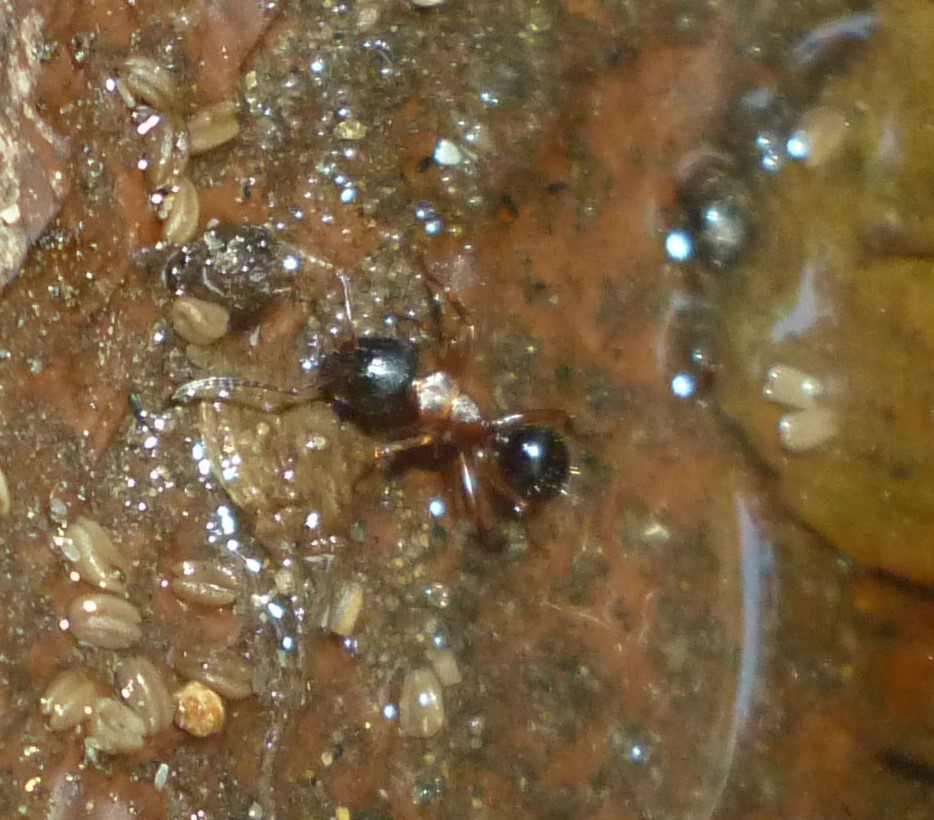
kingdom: Animalia
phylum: Arthropoda
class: Insecta
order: Hymenoptera
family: Formicidae
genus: Camponotus
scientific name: Camponotus nearcticus
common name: Smaller carpenter ant
